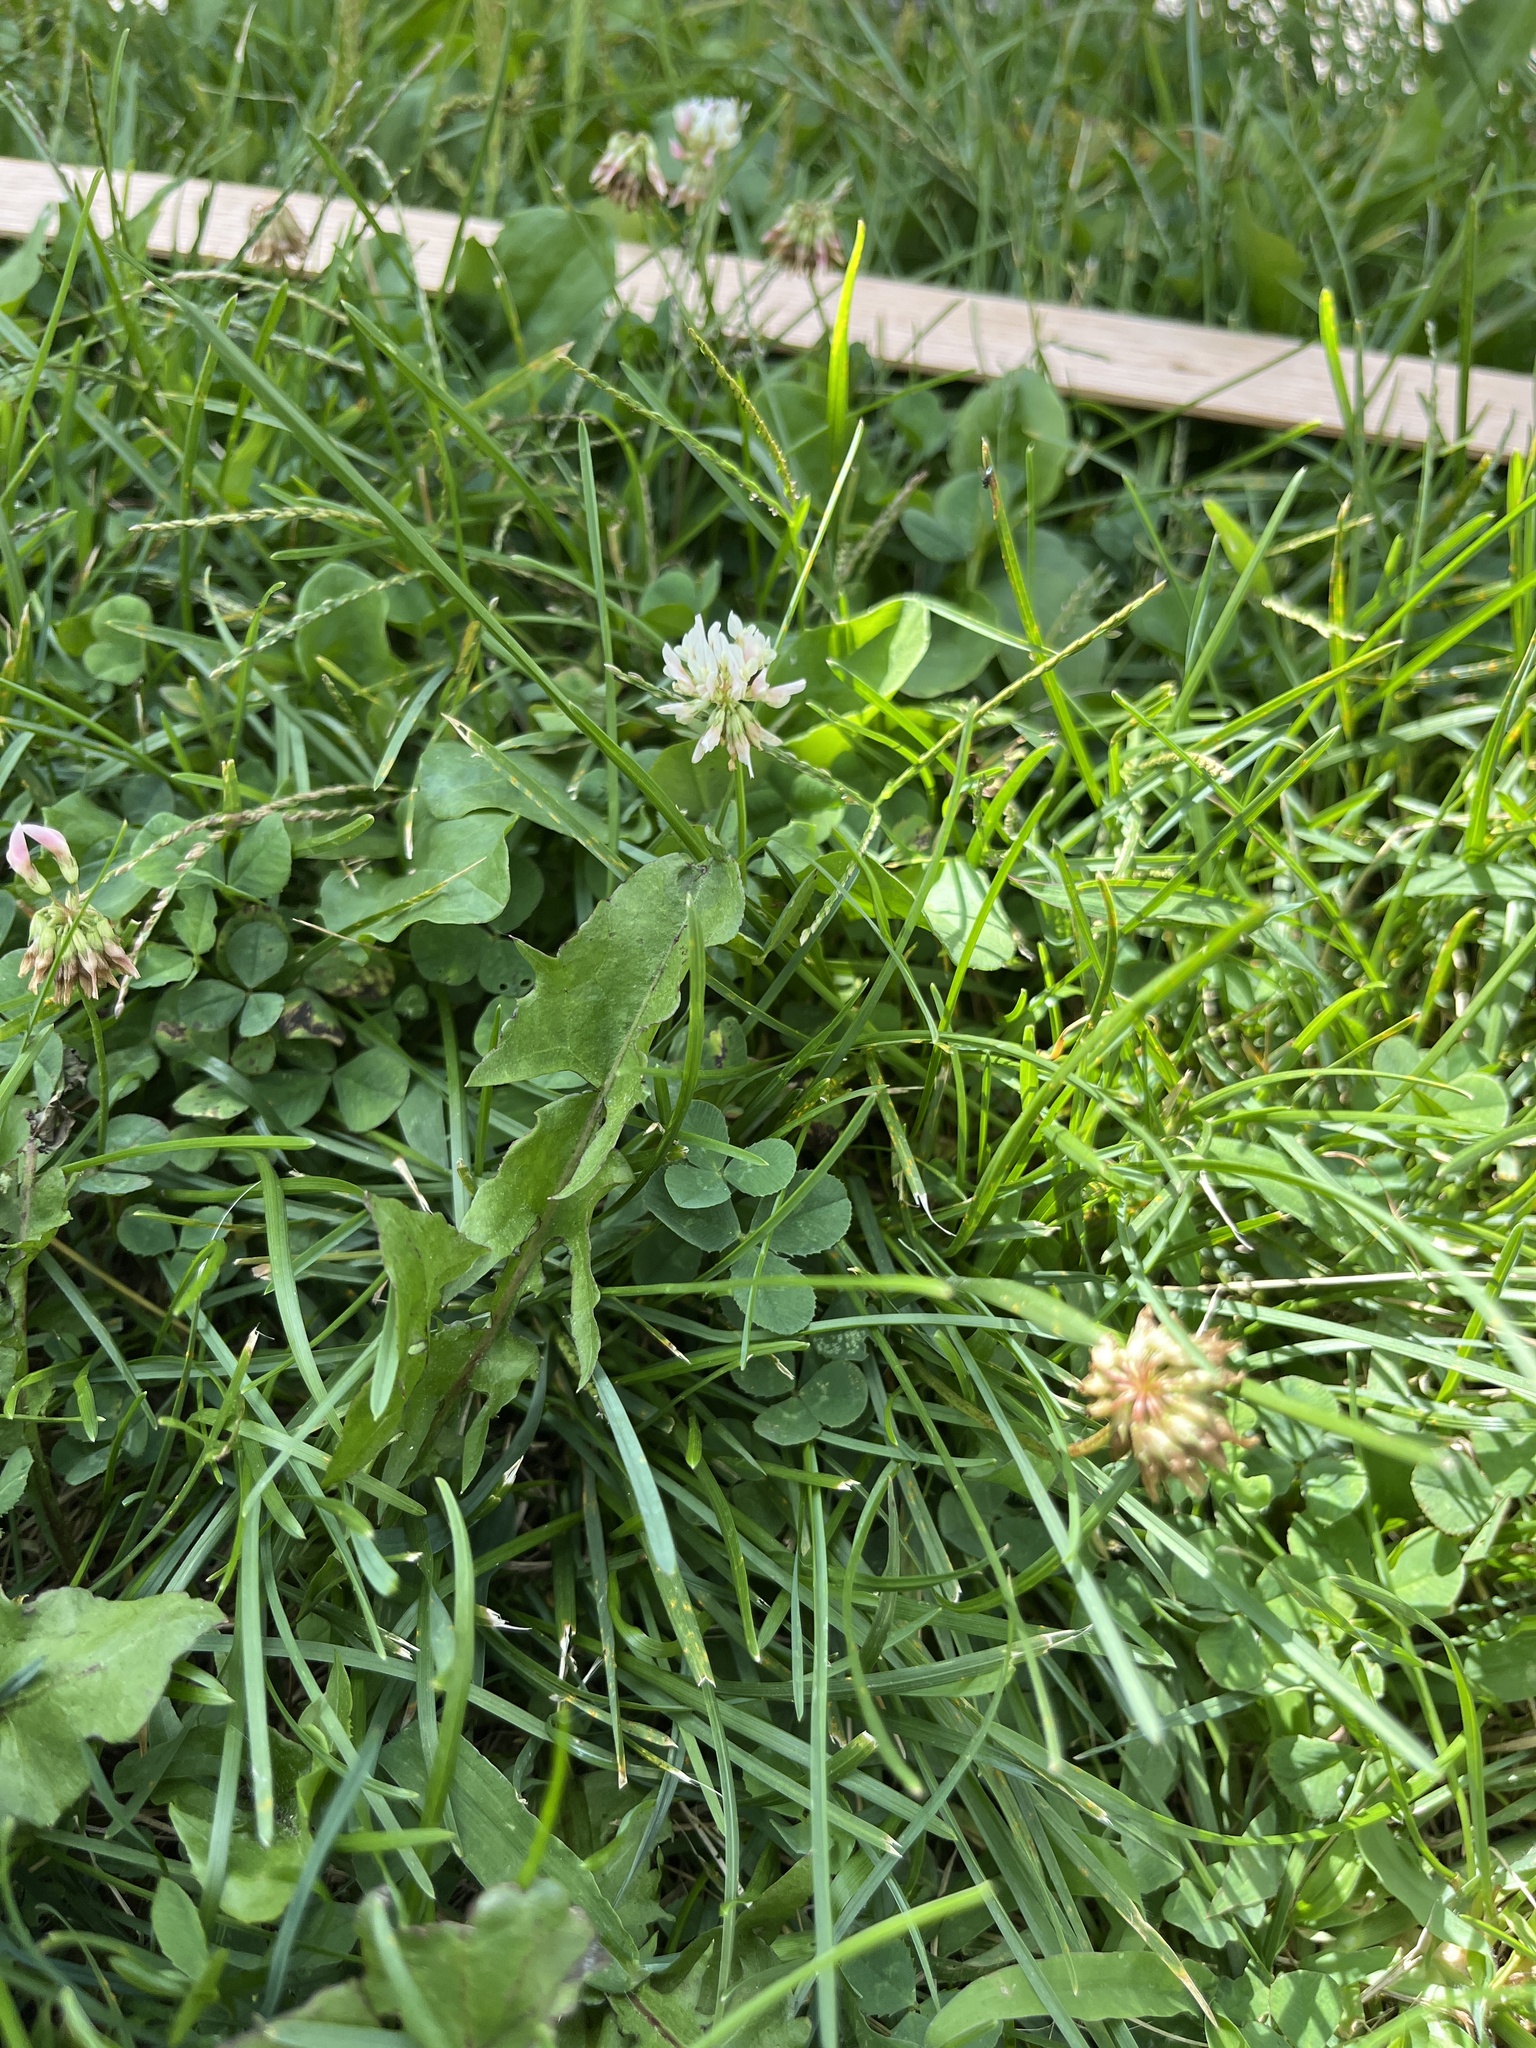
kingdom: Plantae
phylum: Tracheophyta
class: Magnoliopsida
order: Fabales
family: Fabaceae
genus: Trifolium
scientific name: Trifolium repens
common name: White clover
